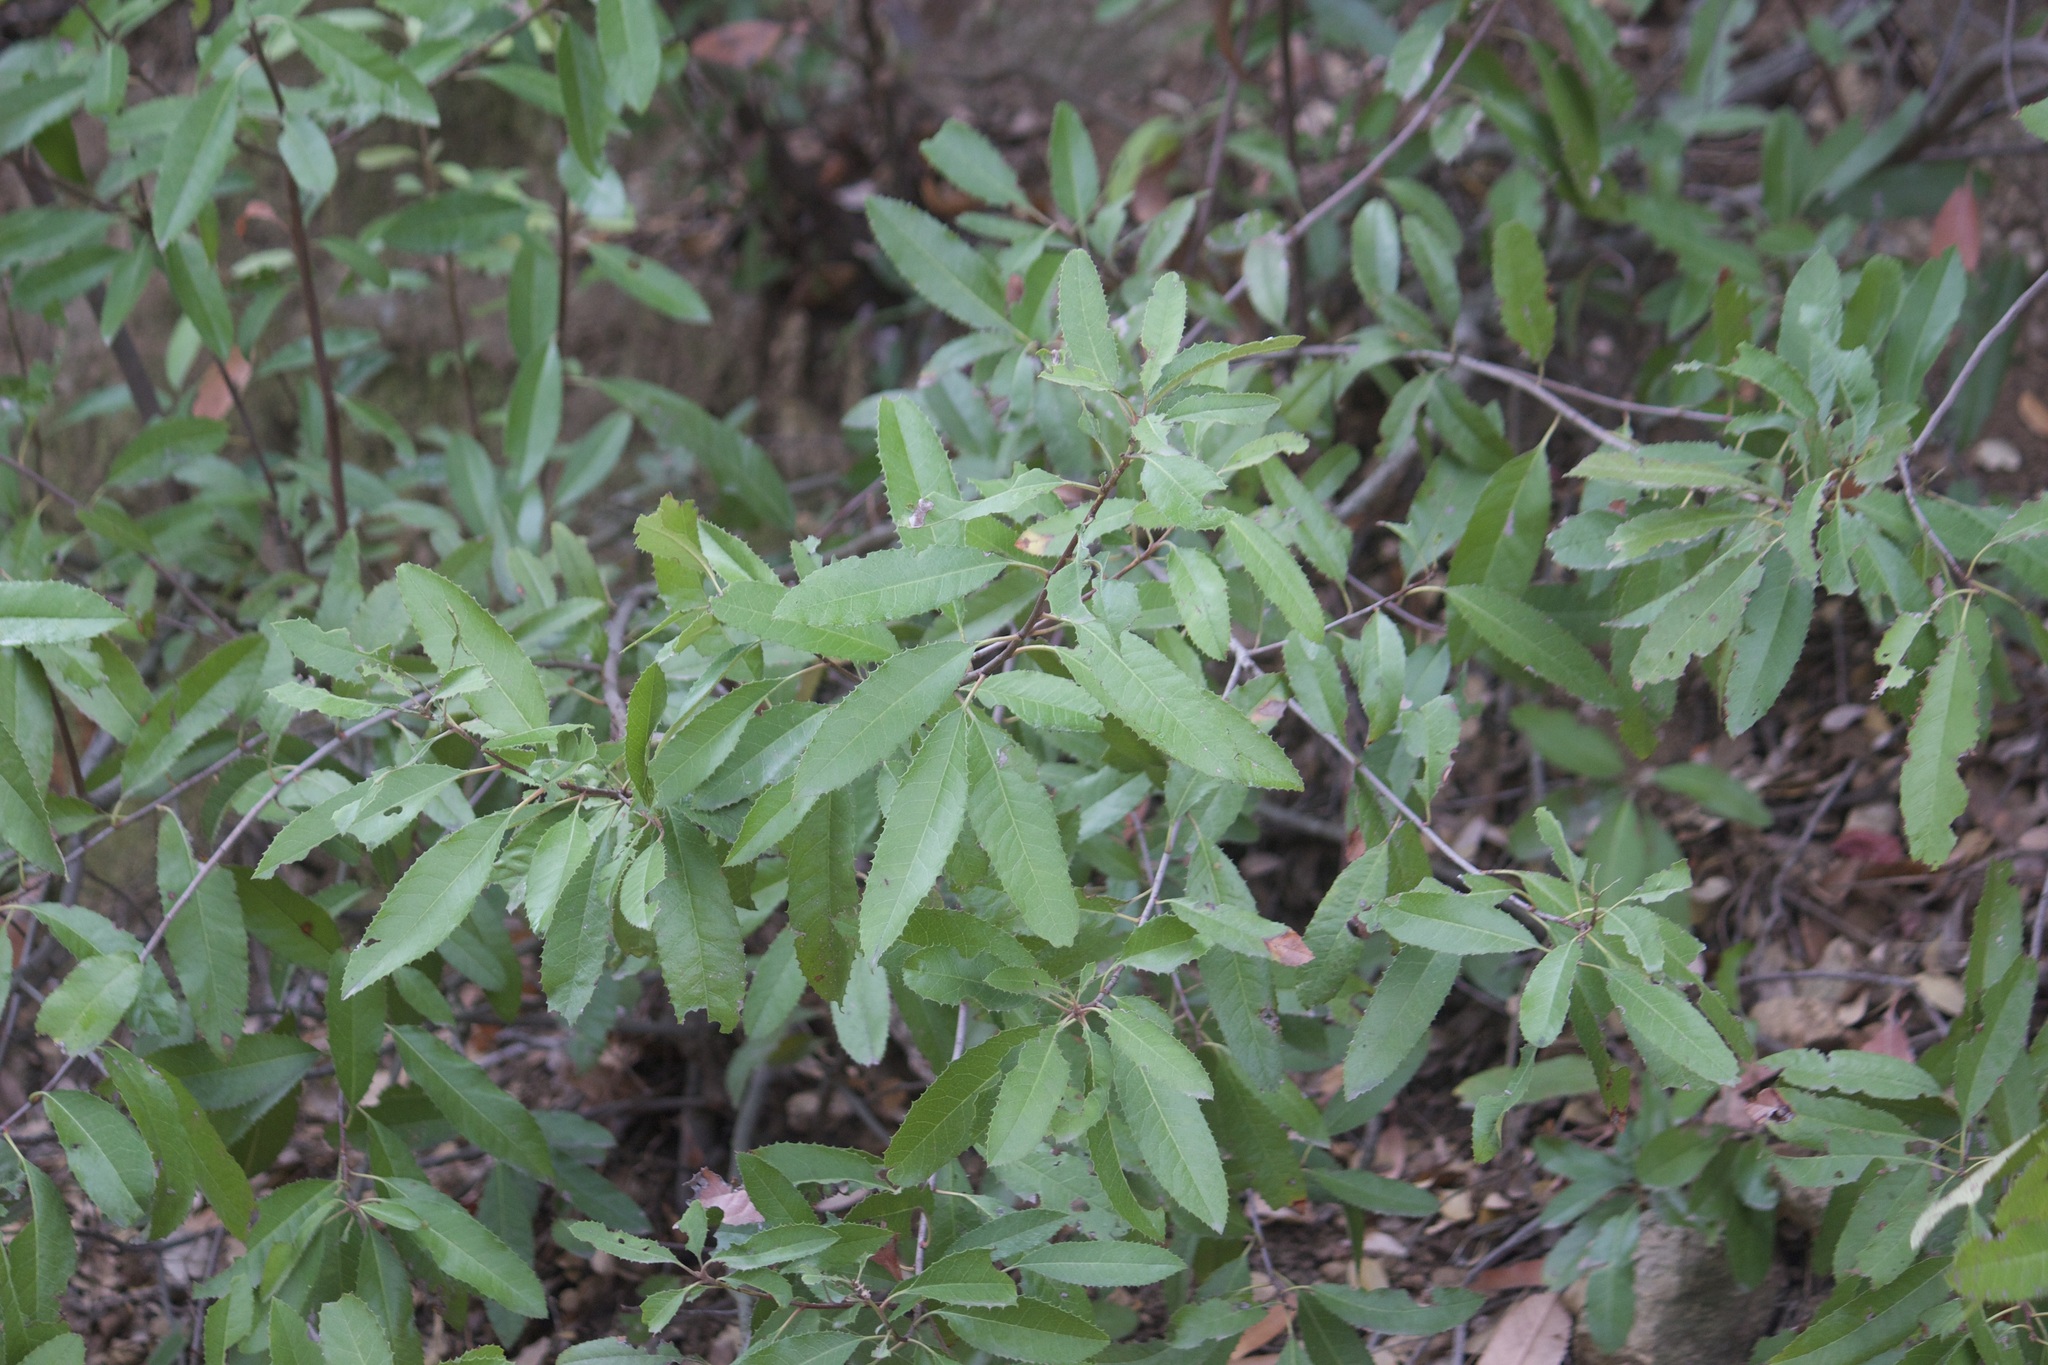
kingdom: Plantae
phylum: Tracheophyta
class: Magnoliopsida
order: Rosales
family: Rosaceae
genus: Heteromeles
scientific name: Heteromeles arbutifolia
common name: California-holly
